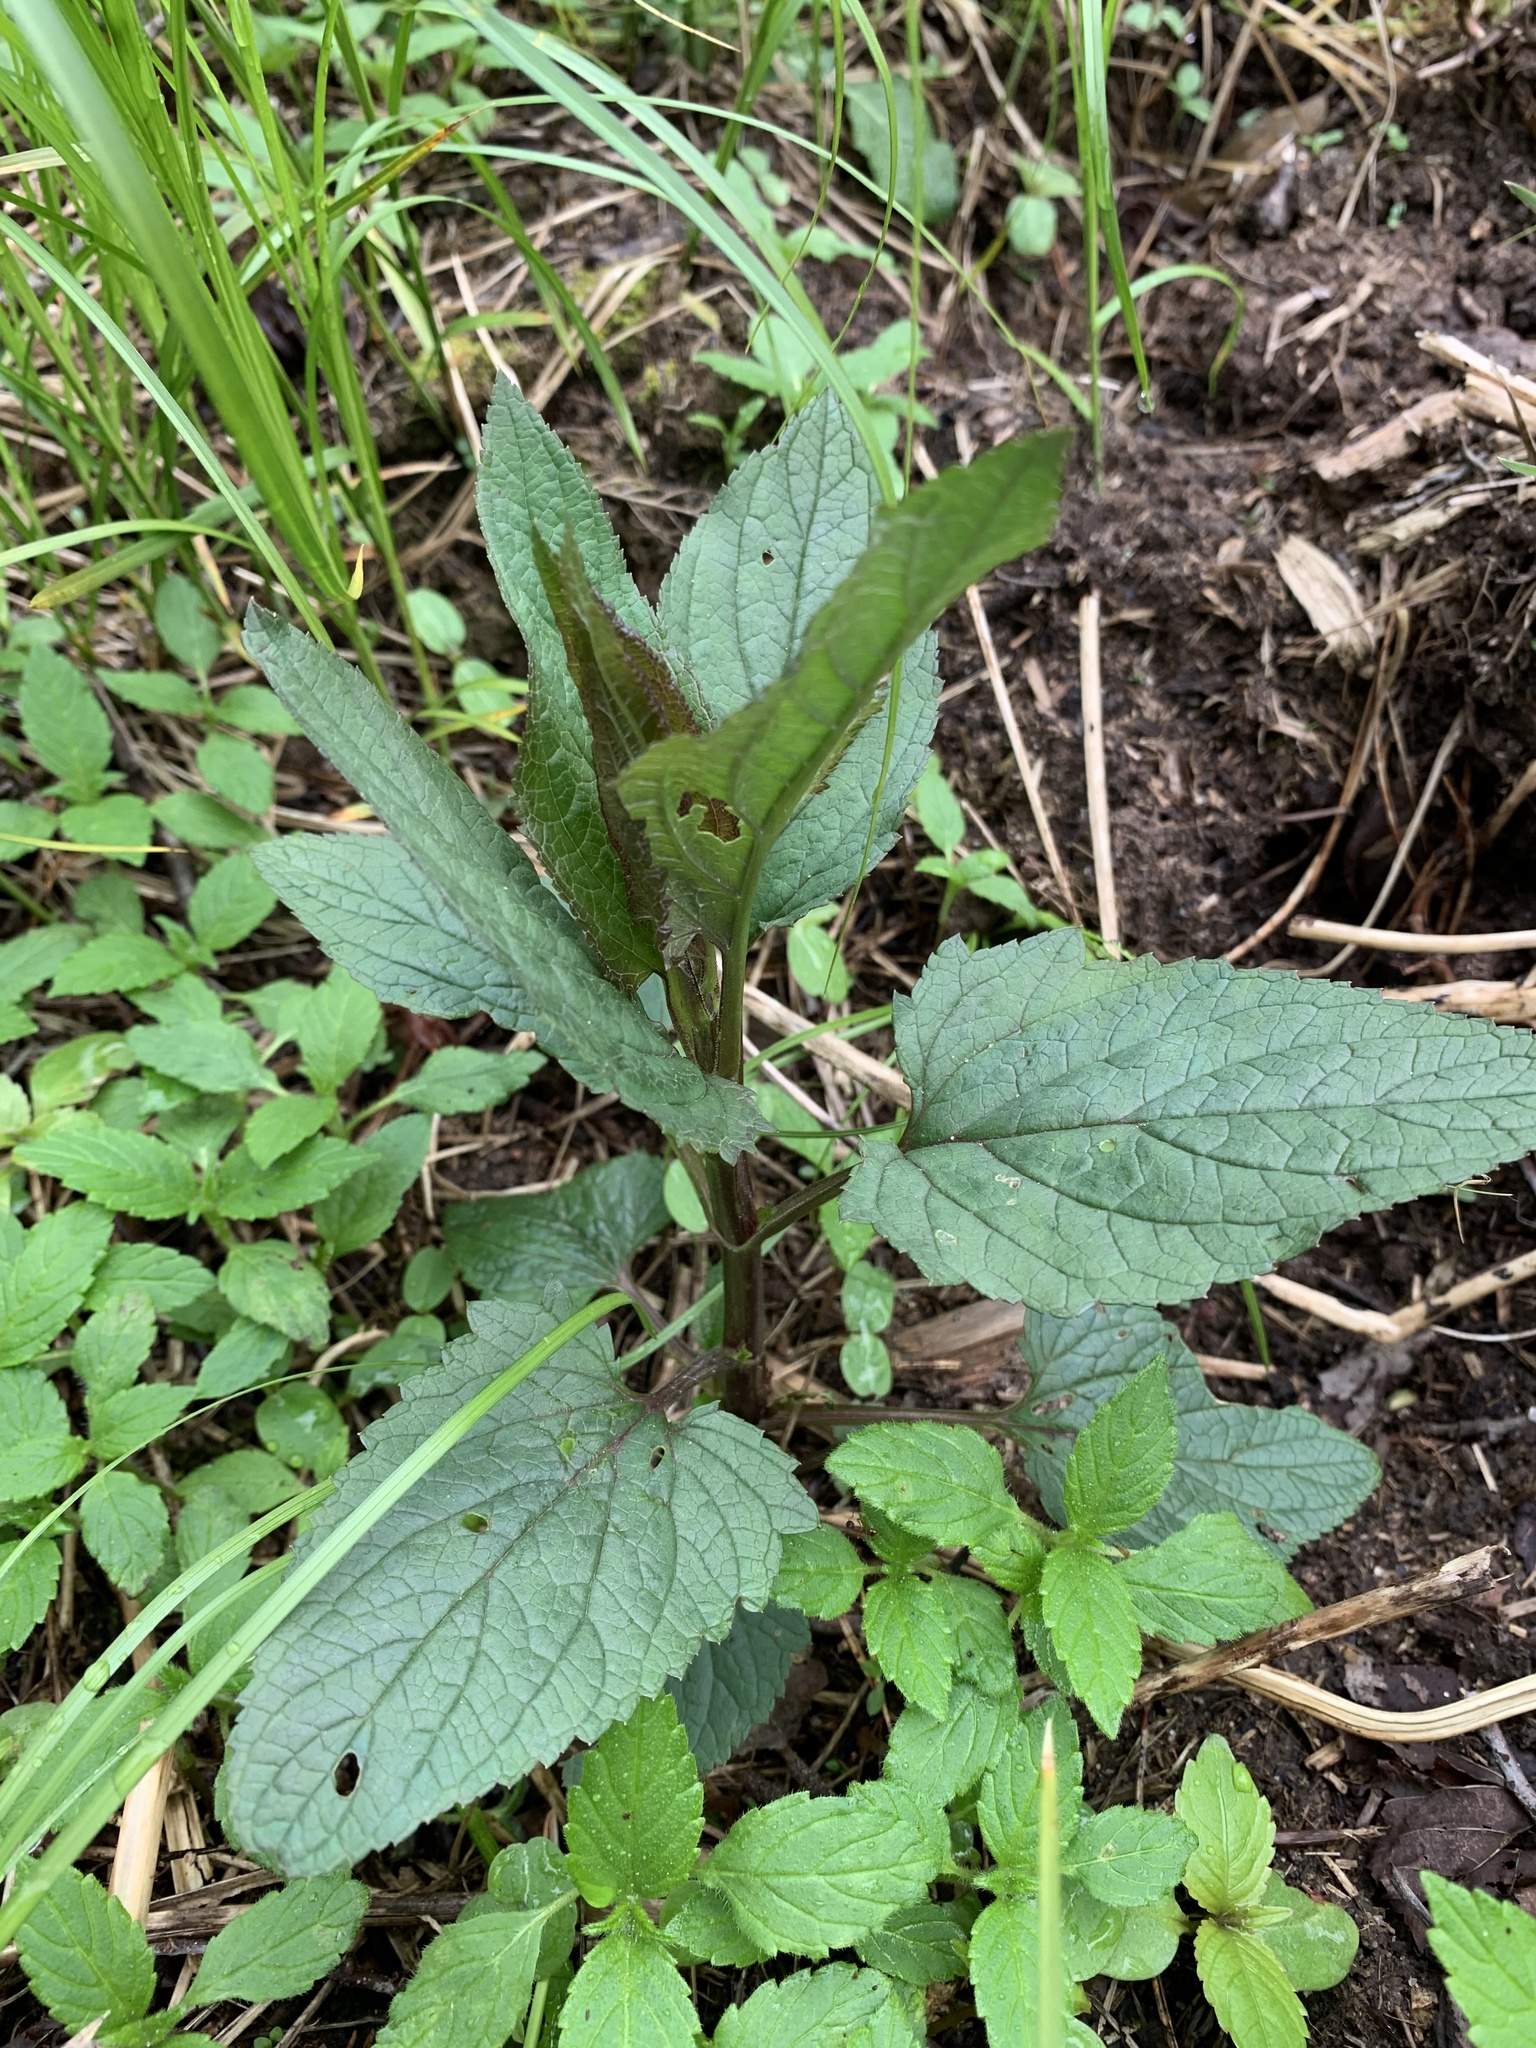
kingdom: Plantae
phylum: Tracheophyta
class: Magnoliopsida
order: Lamiales
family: Scrophulariaceae
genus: Scrophularia
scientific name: Scrophularia nodosa
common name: Common figwort
